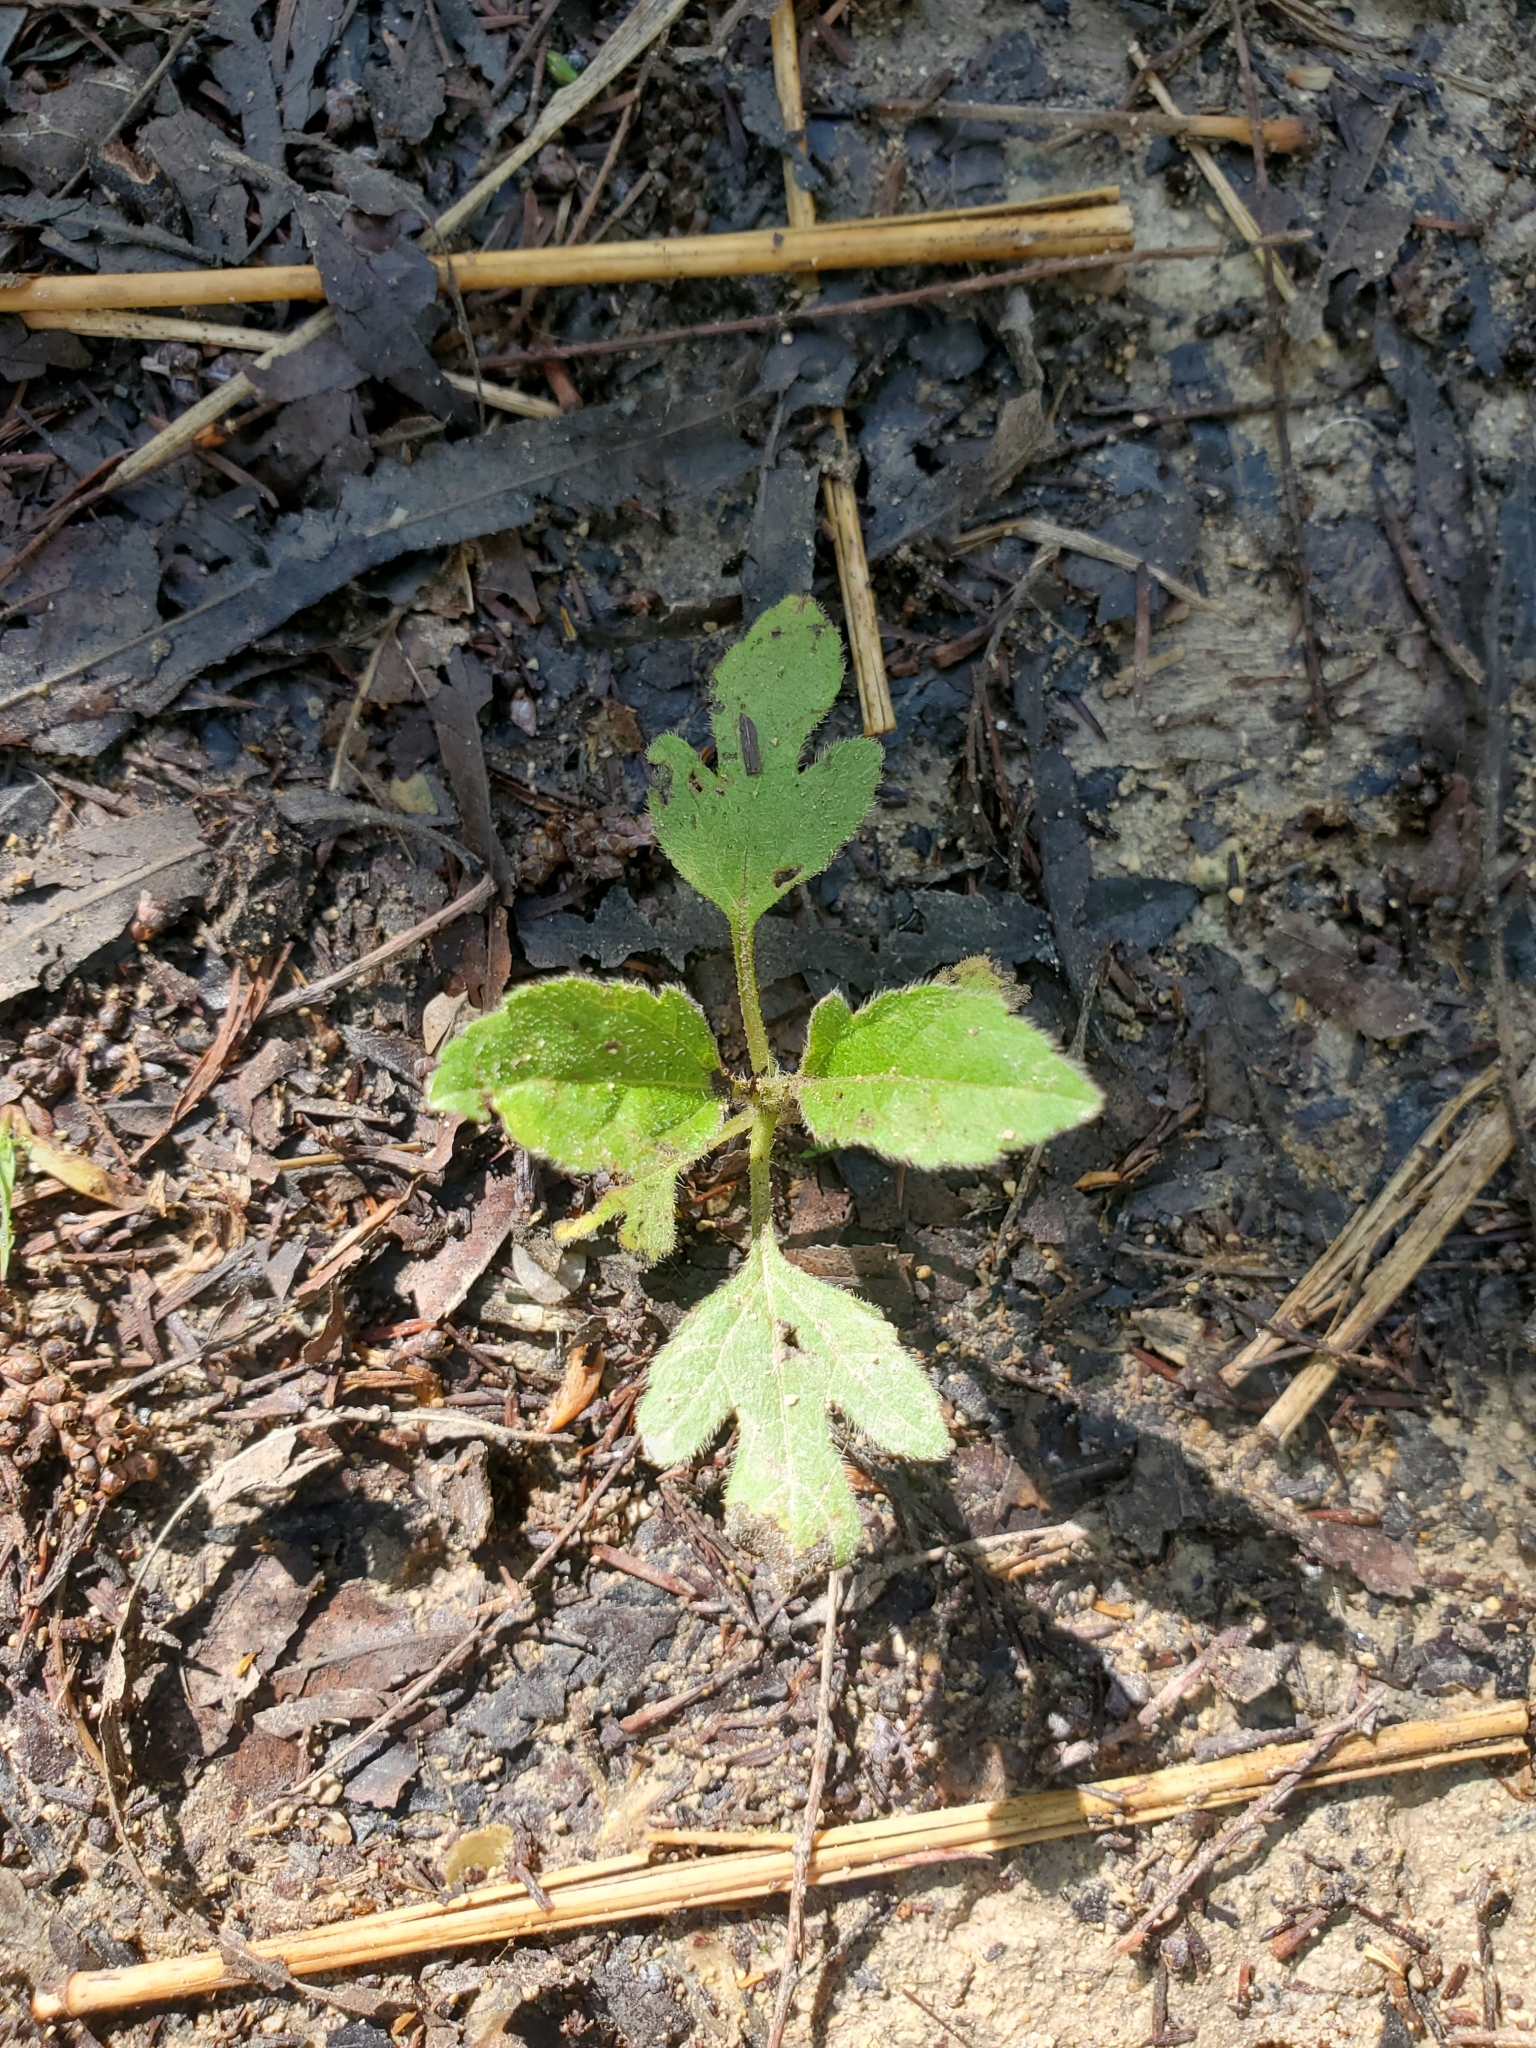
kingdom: Plantae
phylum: Tracheophyta
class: Magnoliopsida
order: Asterales
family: Asteraceae
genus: Ambrosia
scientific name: Ambrosia trifida
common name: Giant ragweed
